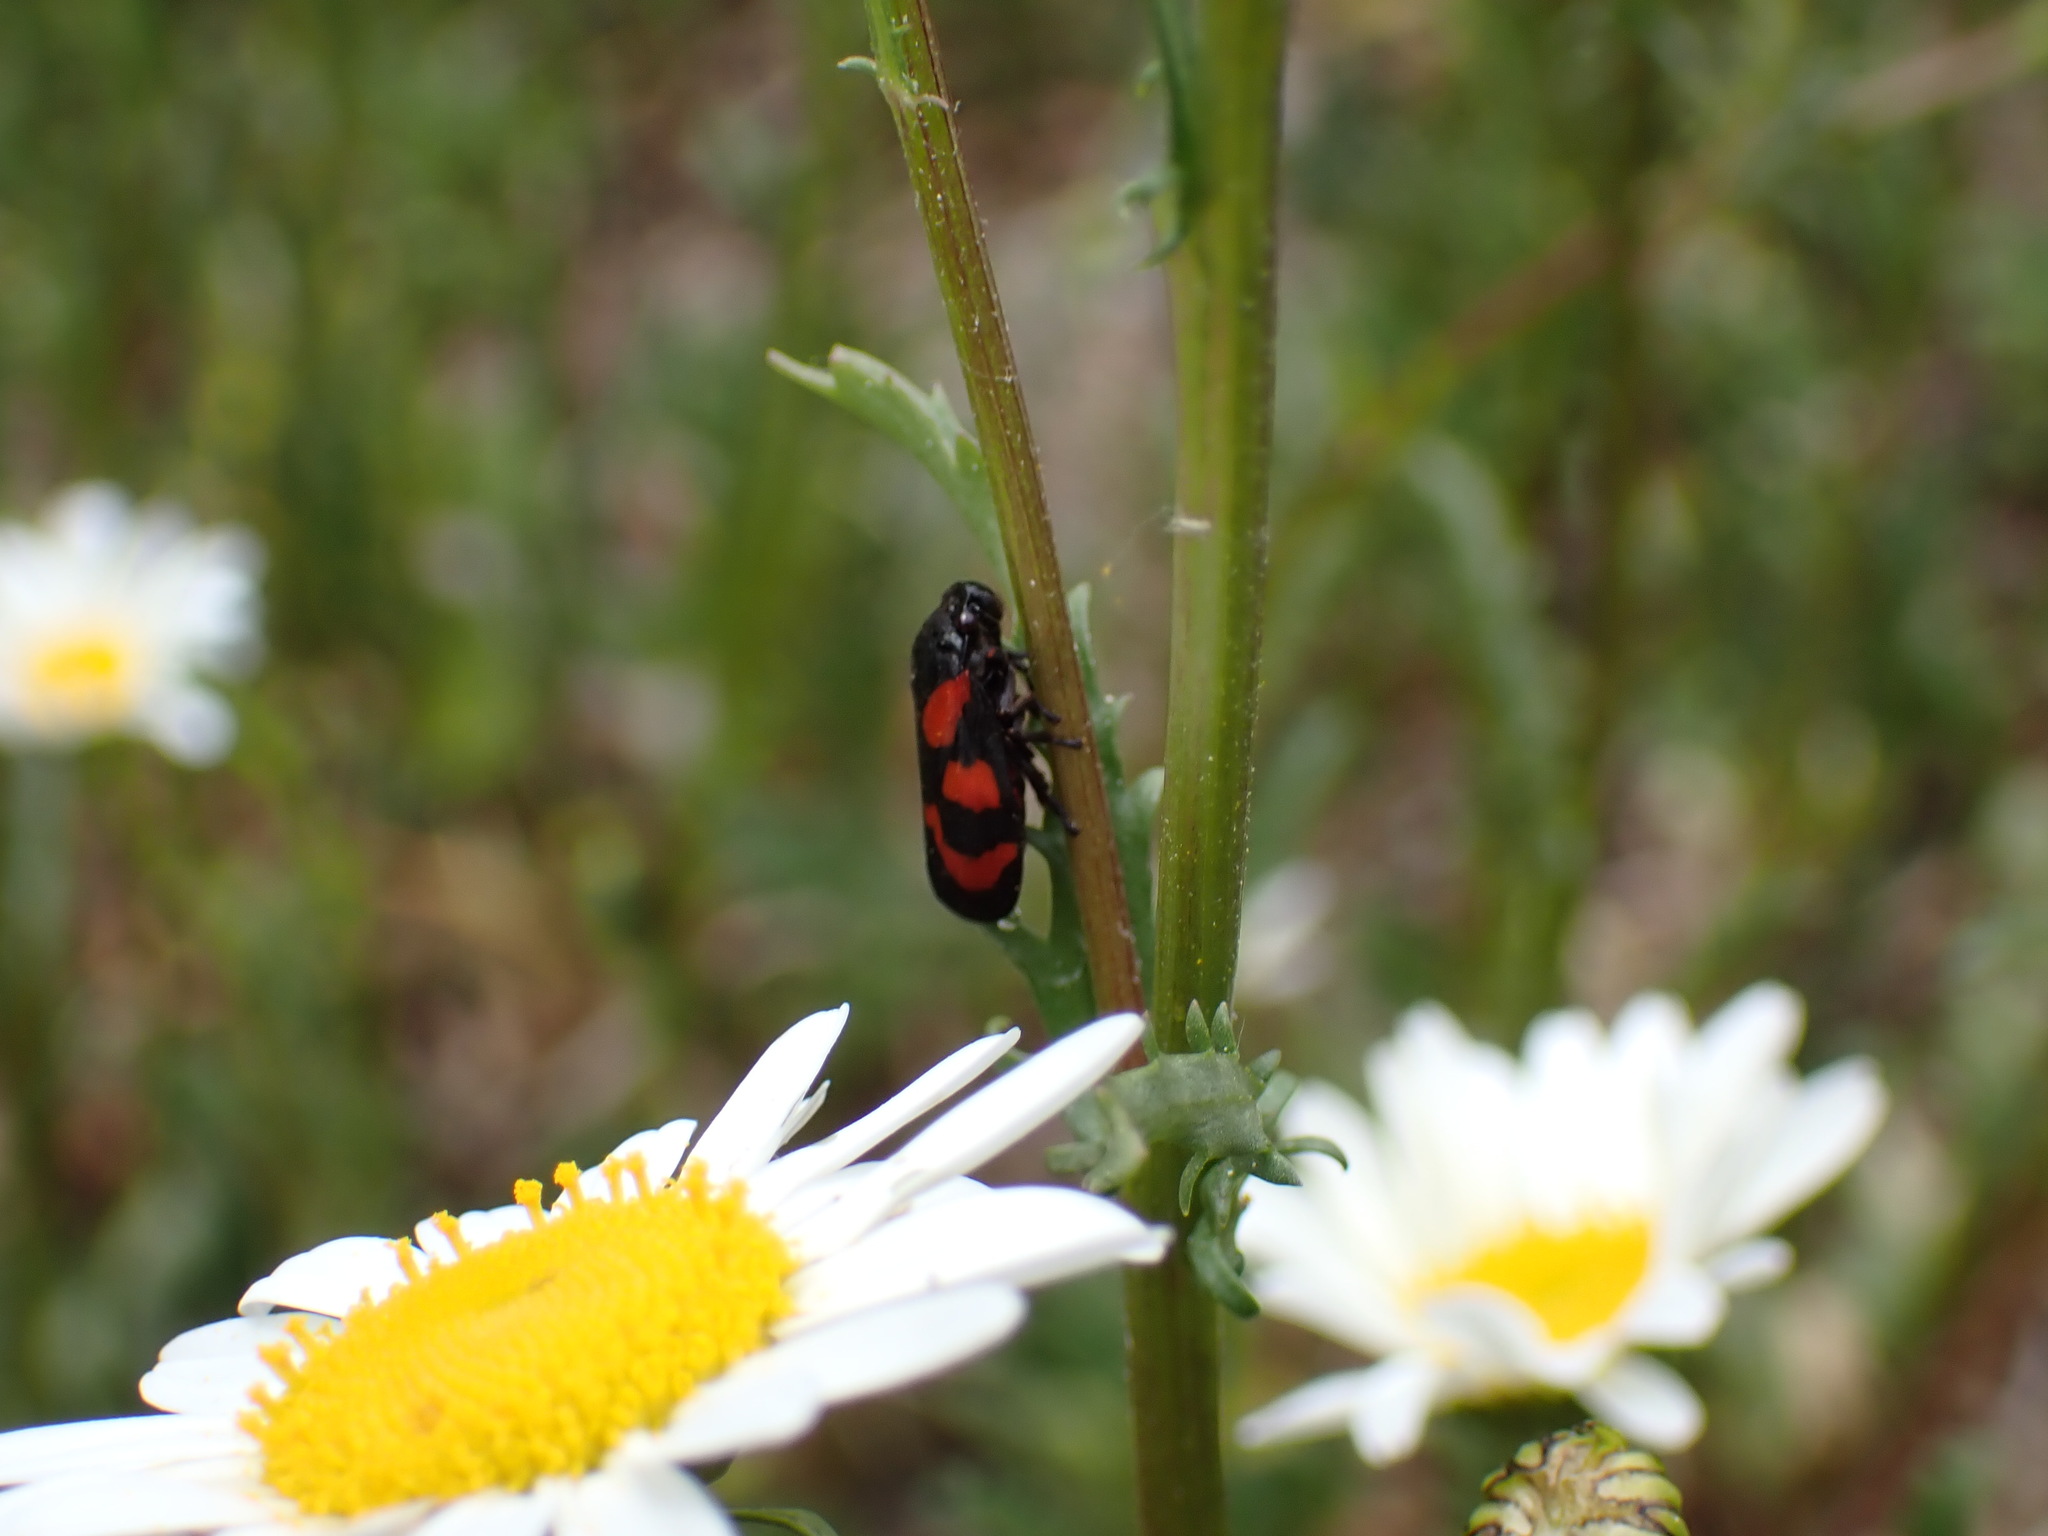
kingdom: Animalia
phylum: Arthropoda
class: Insecta
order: Hemiptera
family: Cercopidae
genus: Cercopis
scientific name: Cercopis vulnerata
